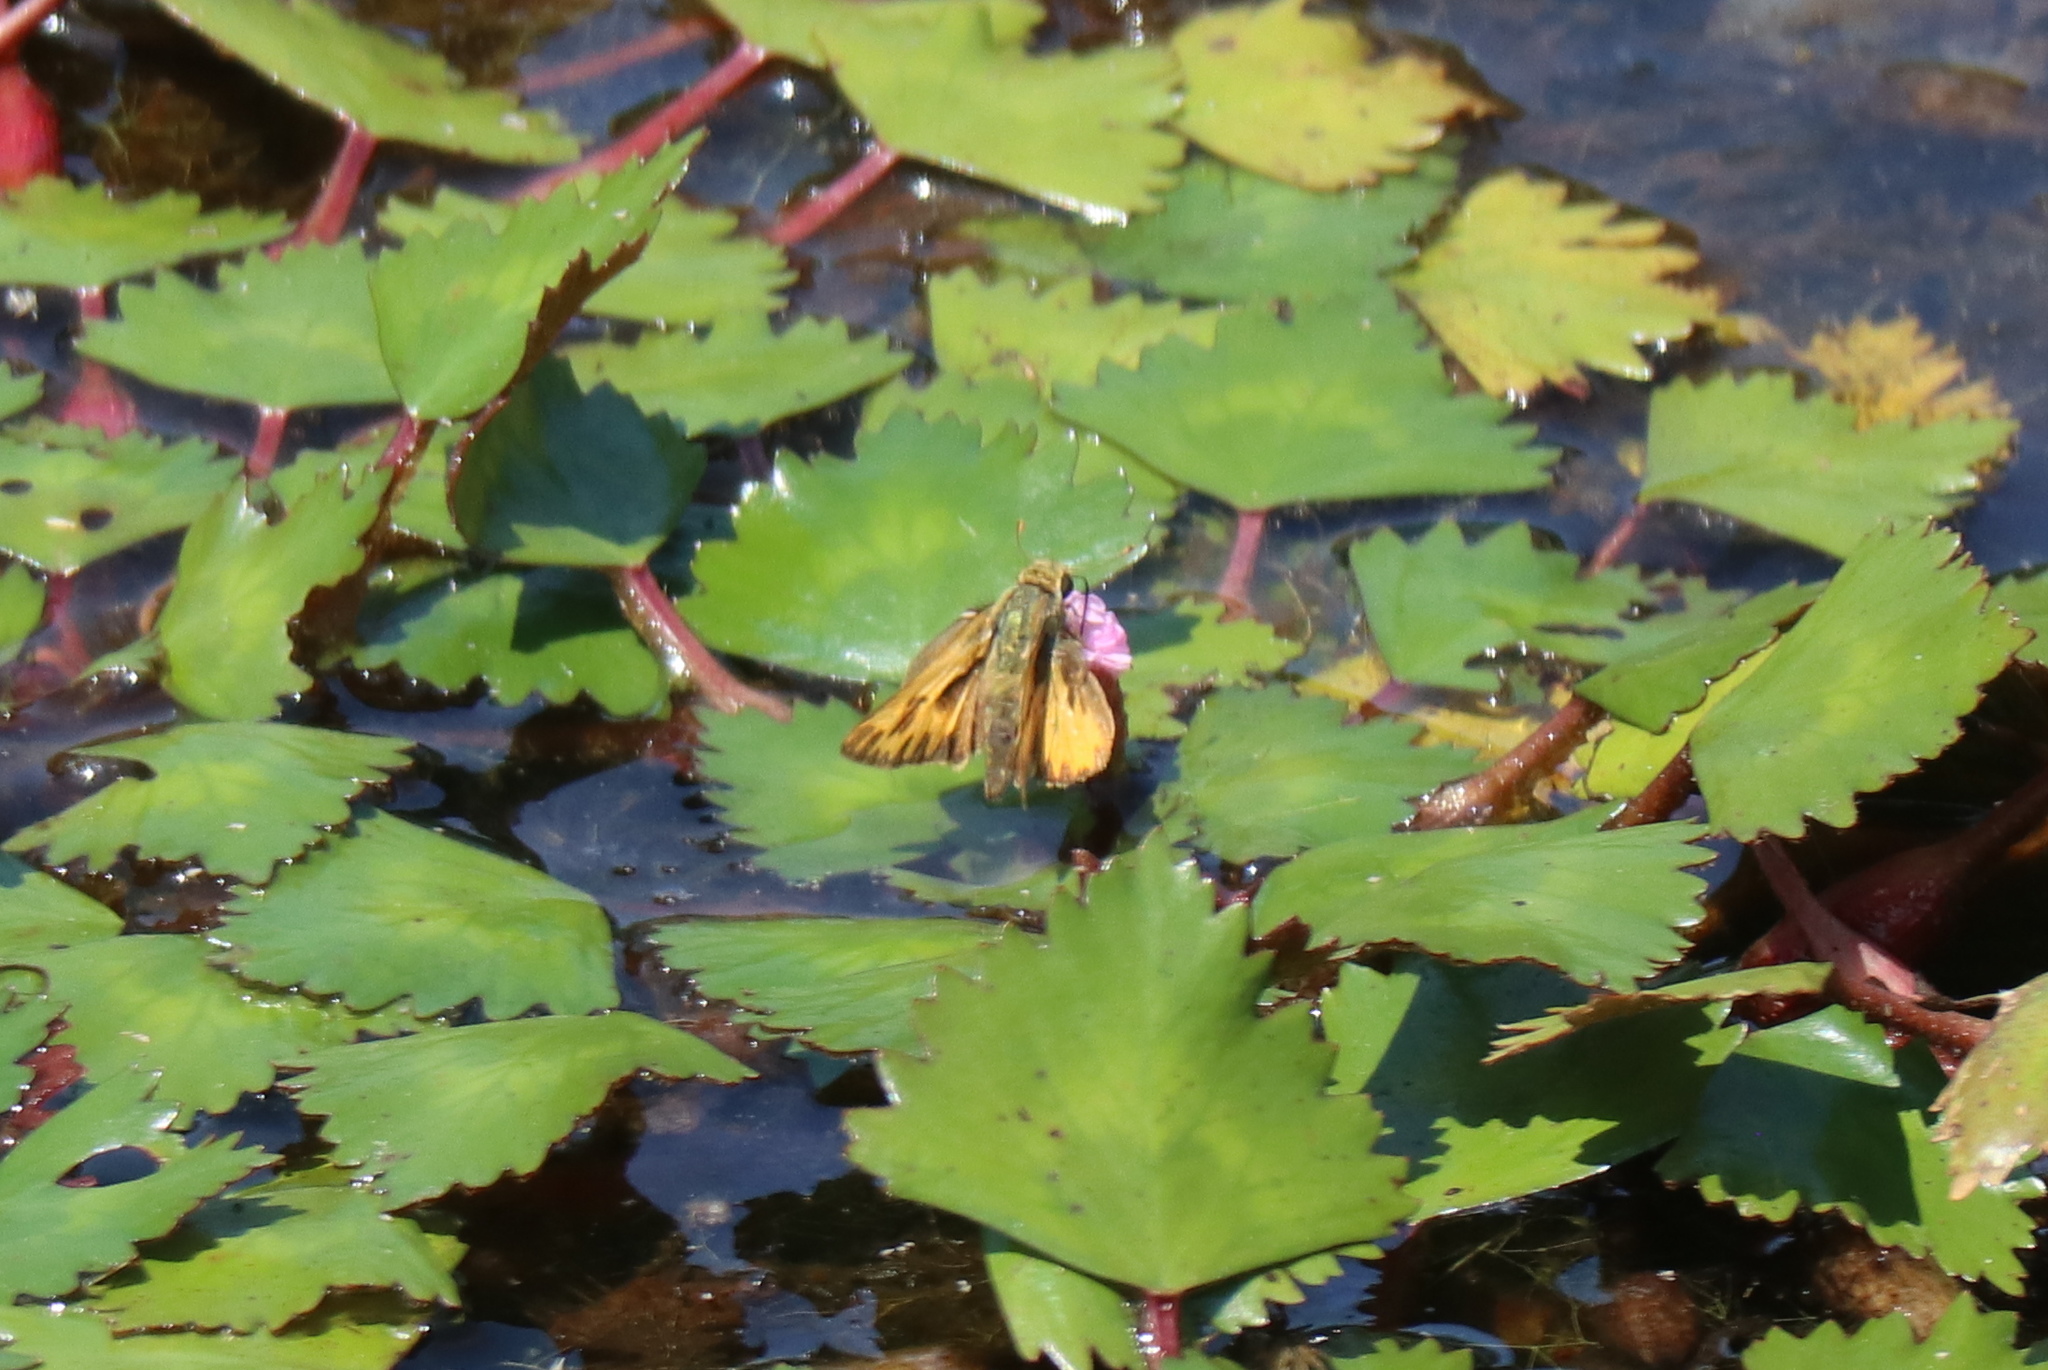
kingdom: Plantae
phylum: Tracheophyta
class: Magnoliopsida
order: Myrtales
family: Lythraceae
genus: Trapa
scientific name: Trapa natans
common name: Water chestnut
